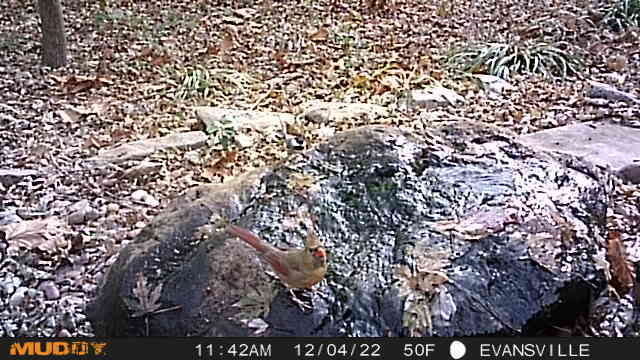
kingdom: Animalia
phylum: Chordata
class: Aves
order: Passeriformes
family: Cardinalidae
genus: Cardinalis
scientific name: Cardinalis cardinalis
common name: Northern cardinal
